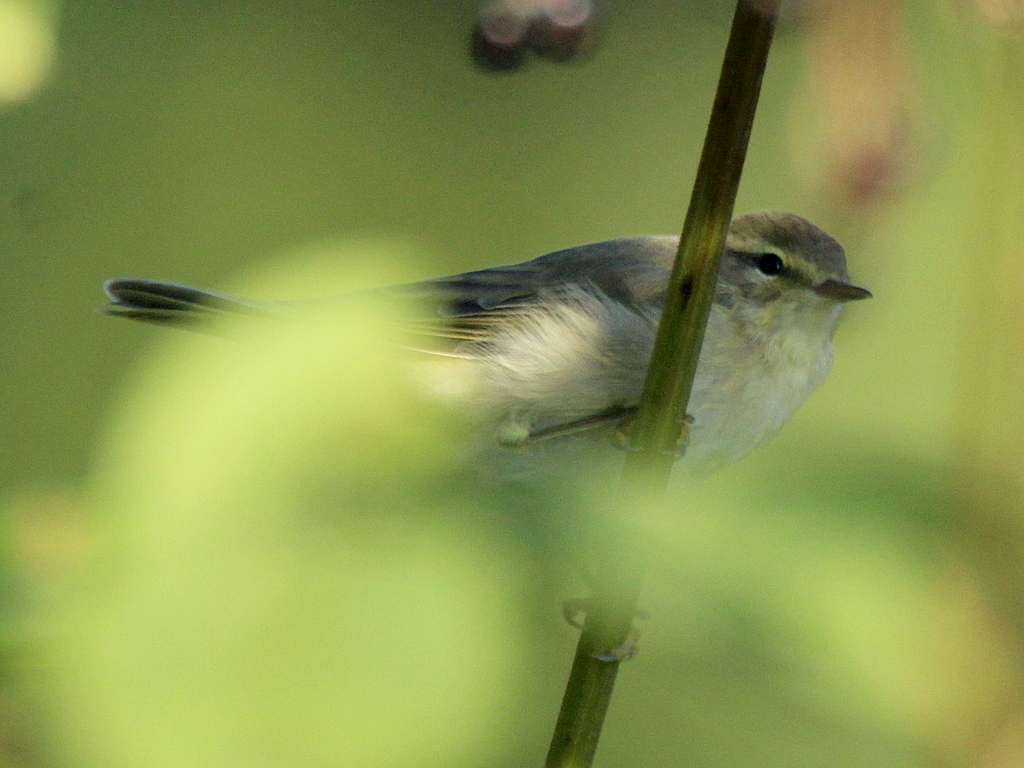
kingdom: Animalia
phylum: Chordata
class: Aves
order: Passeriformes
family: Phylloscopidae
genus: Phylloscopus
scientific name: Phylloscopus collybita
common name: Common chiffchaff
